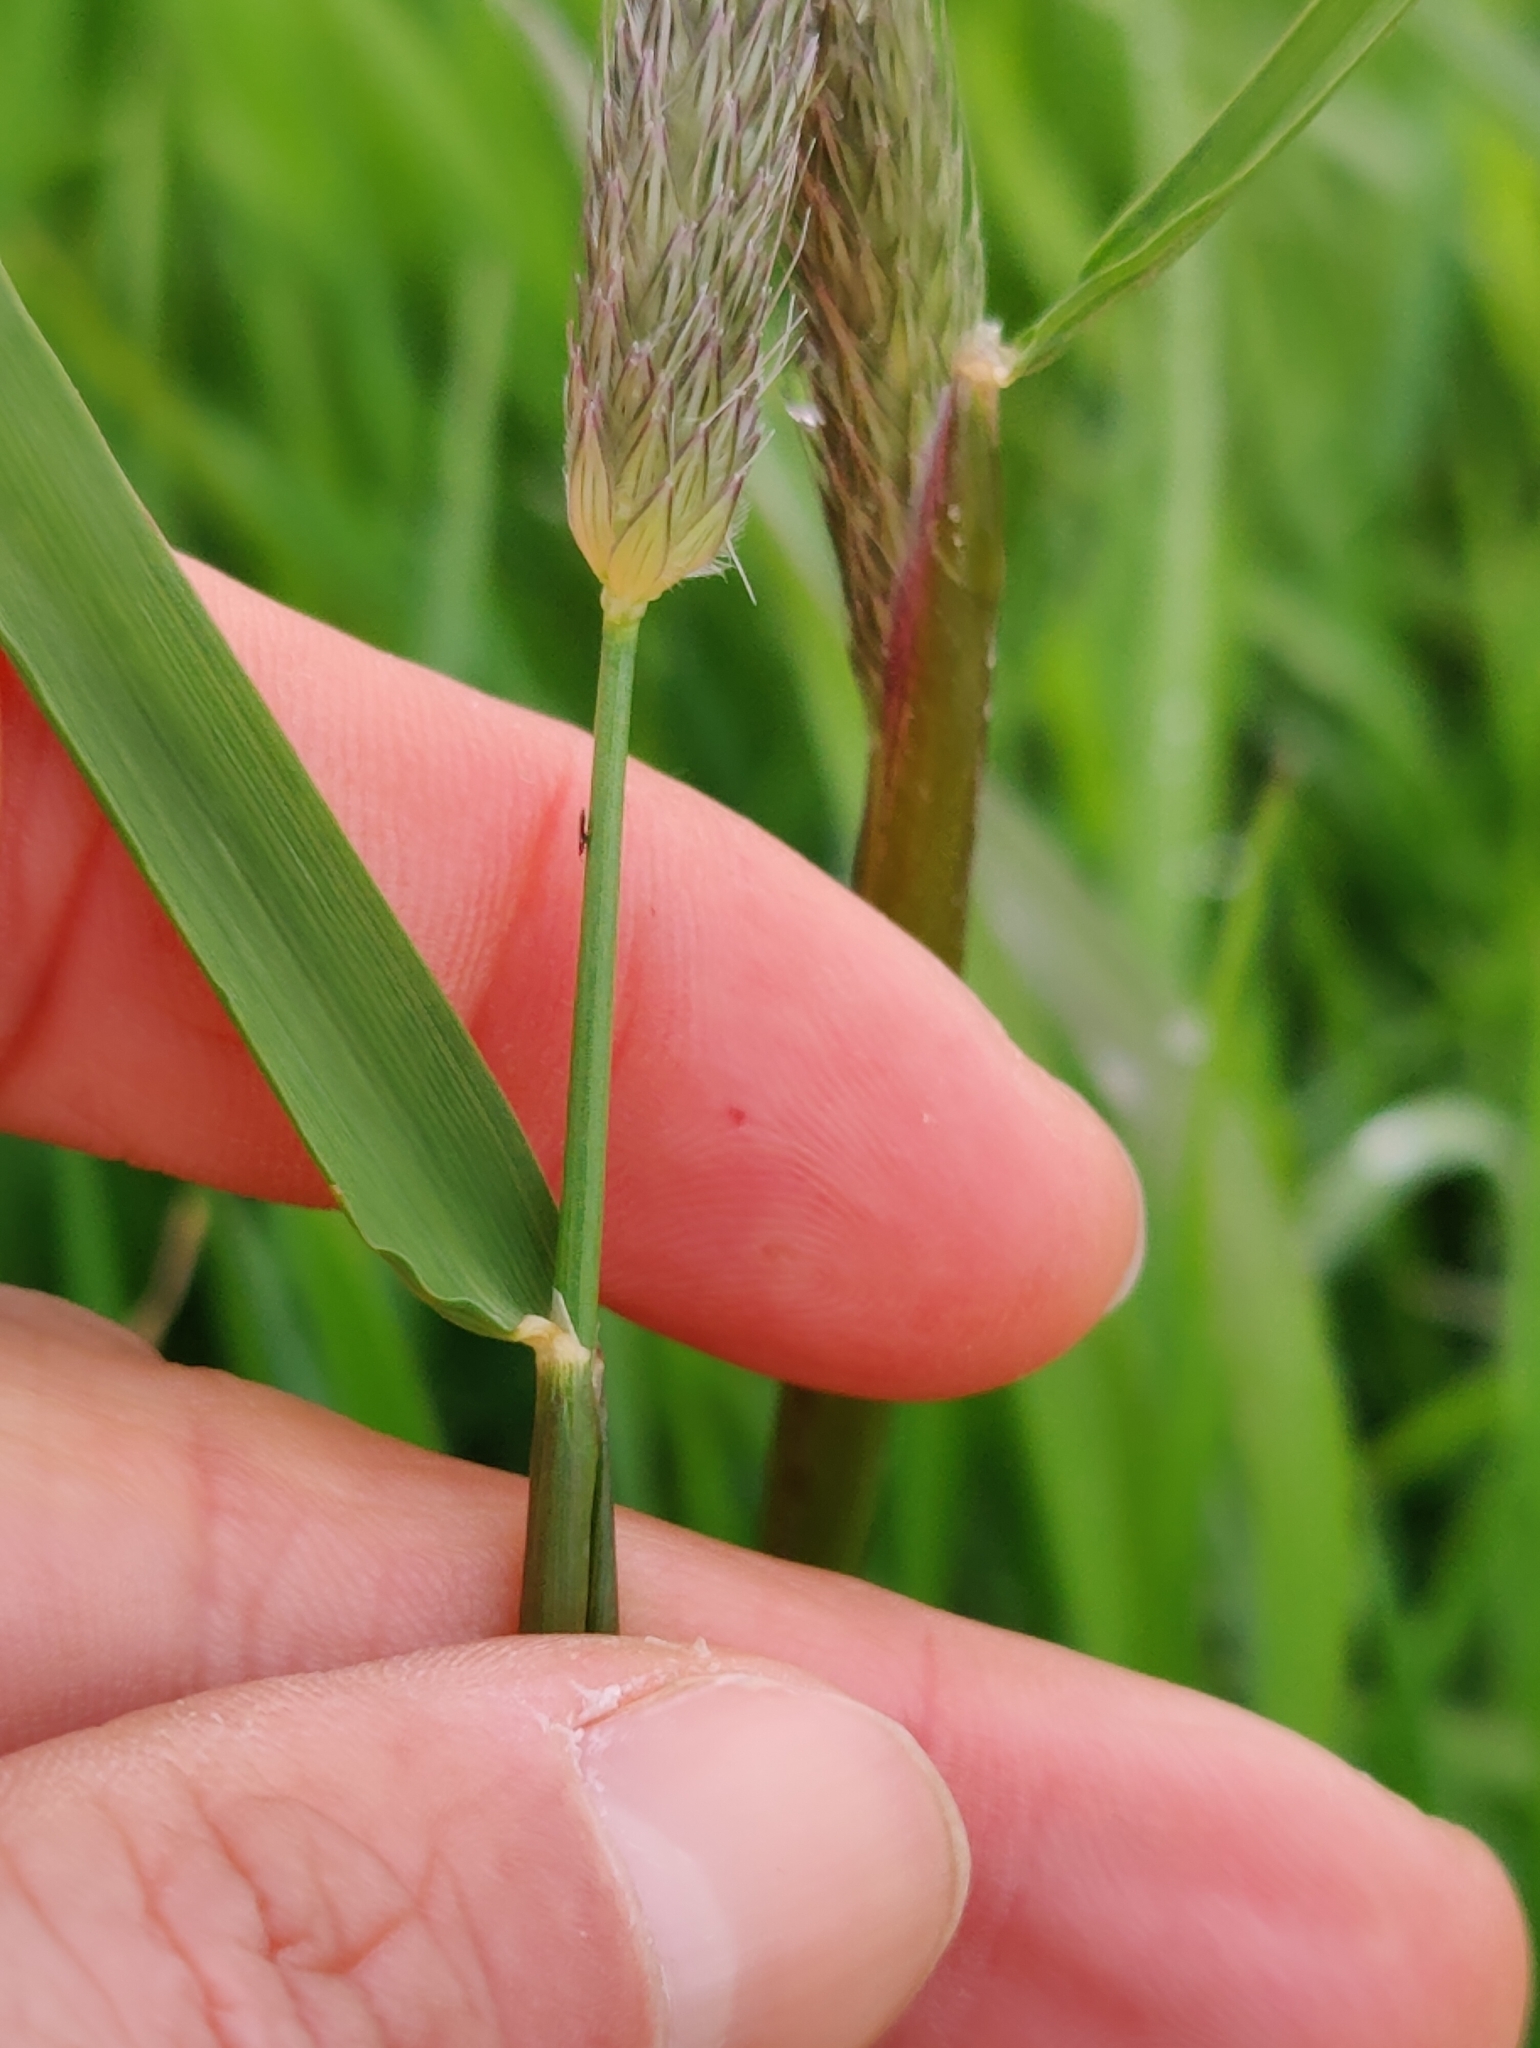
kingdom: Plantae
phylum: Tracheophyta
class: Liliopsida
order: Poales
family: Poaceae
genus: Alopecurus
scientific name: Alopecurus pratensis
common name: Meadow foxtail
